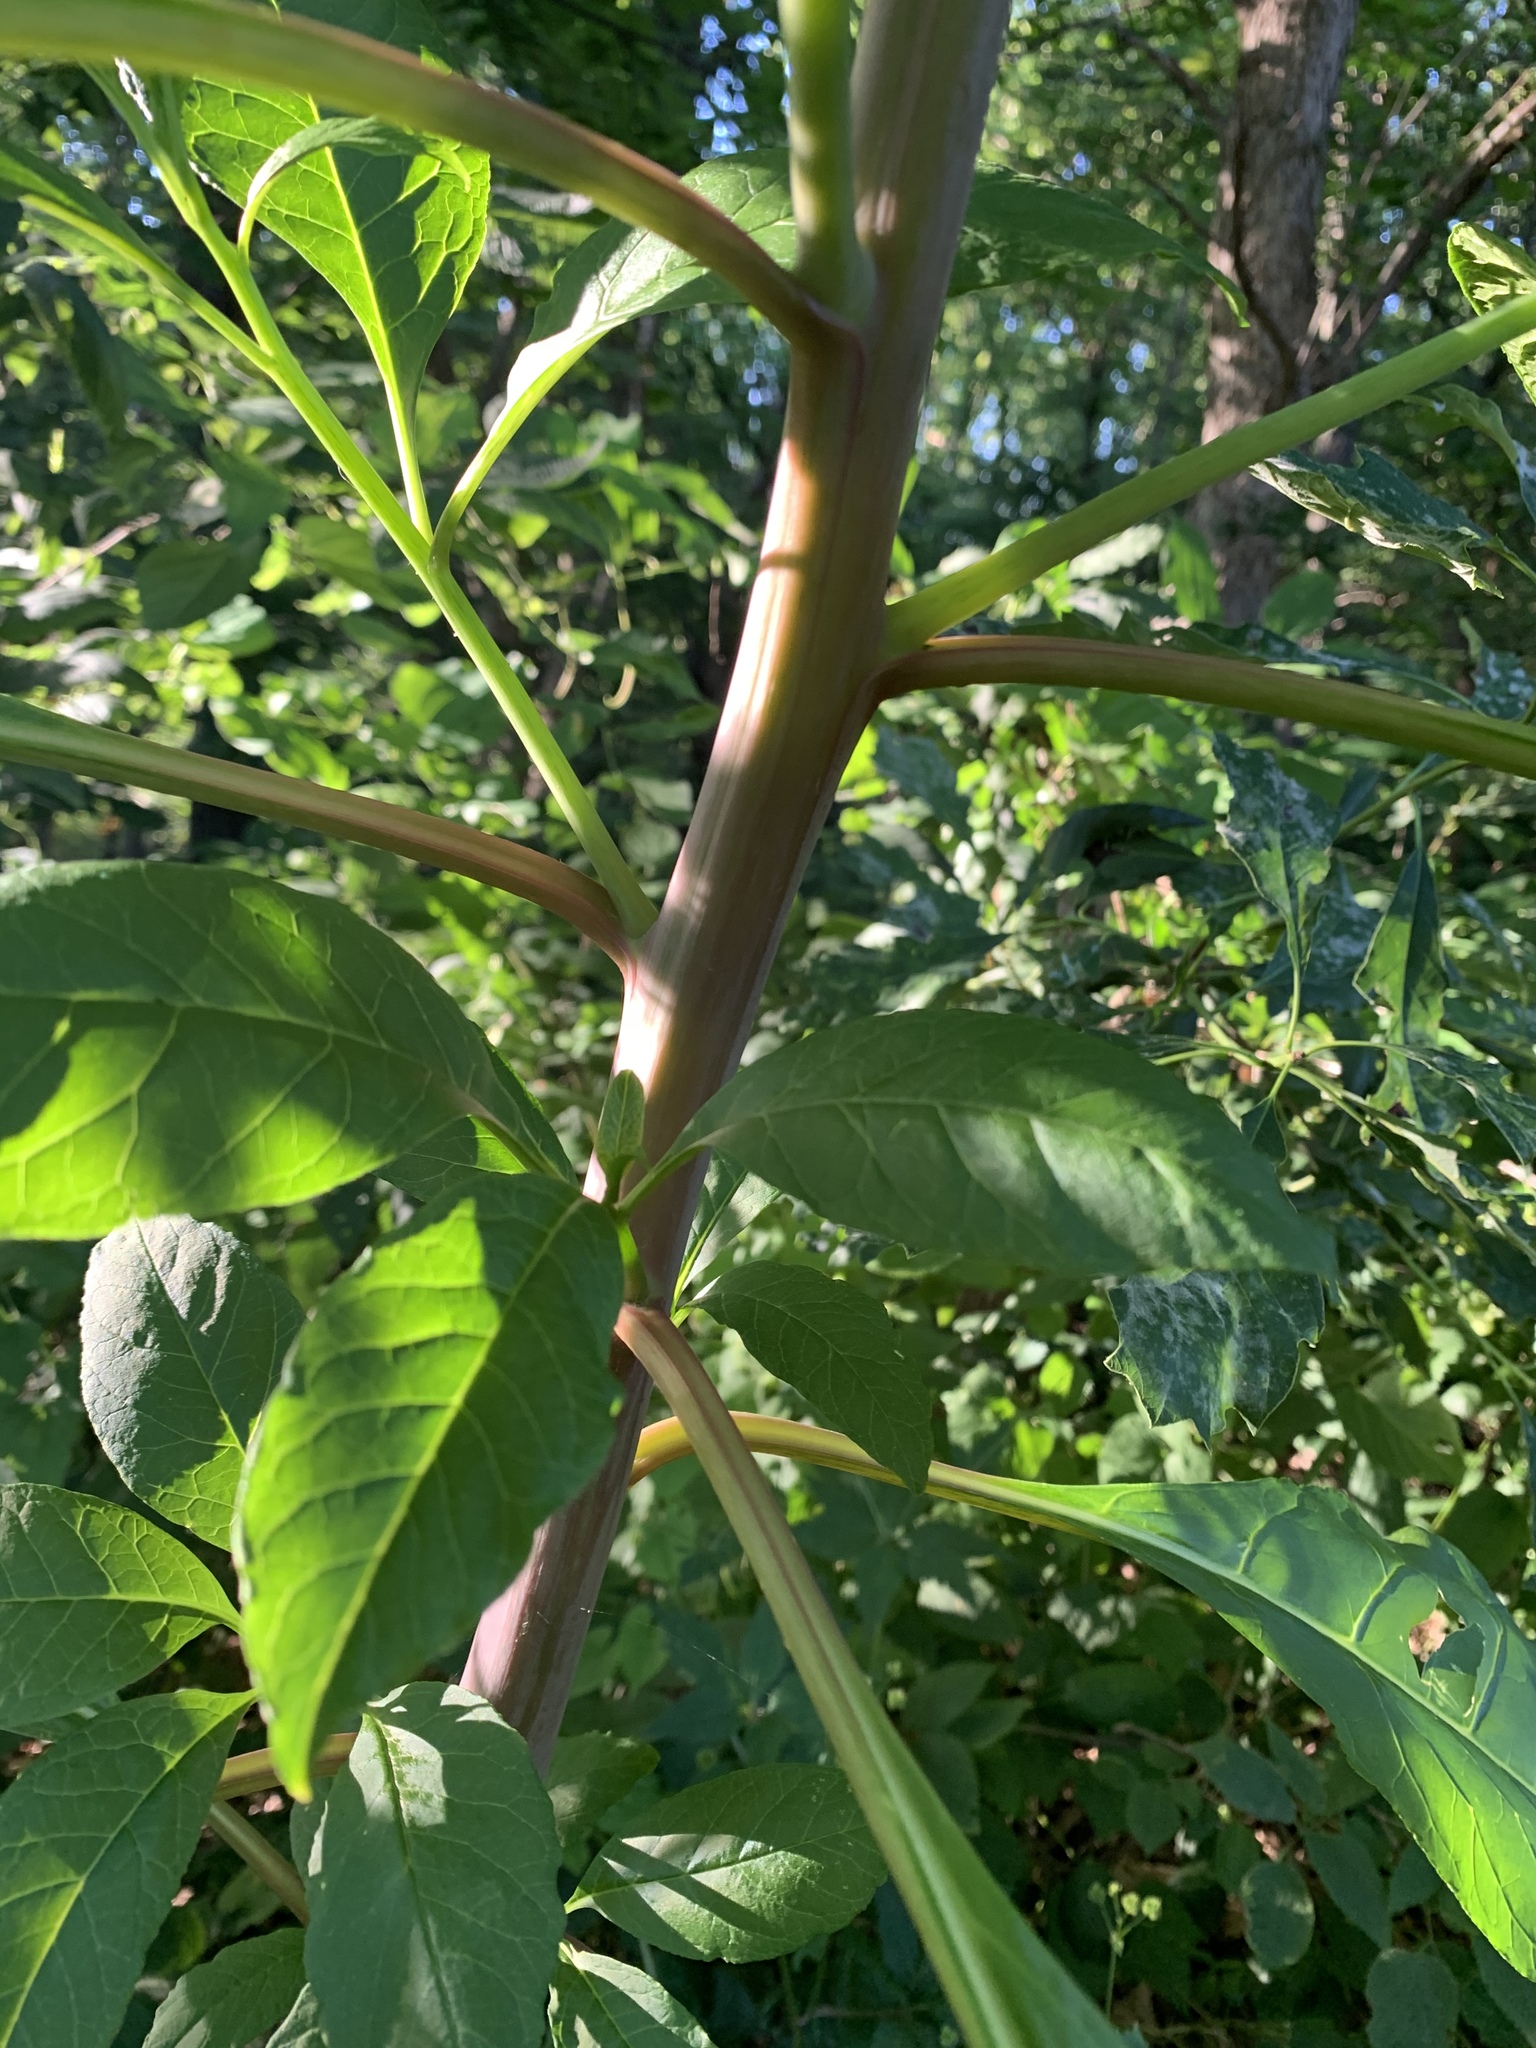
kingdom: Plantae
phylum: Tracheophyta
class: Magnoliopsida
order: Caryophyllales
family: Phytolaccaceae
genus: Phytolacca
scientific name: Phytolacca americana
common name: American pokeweed
